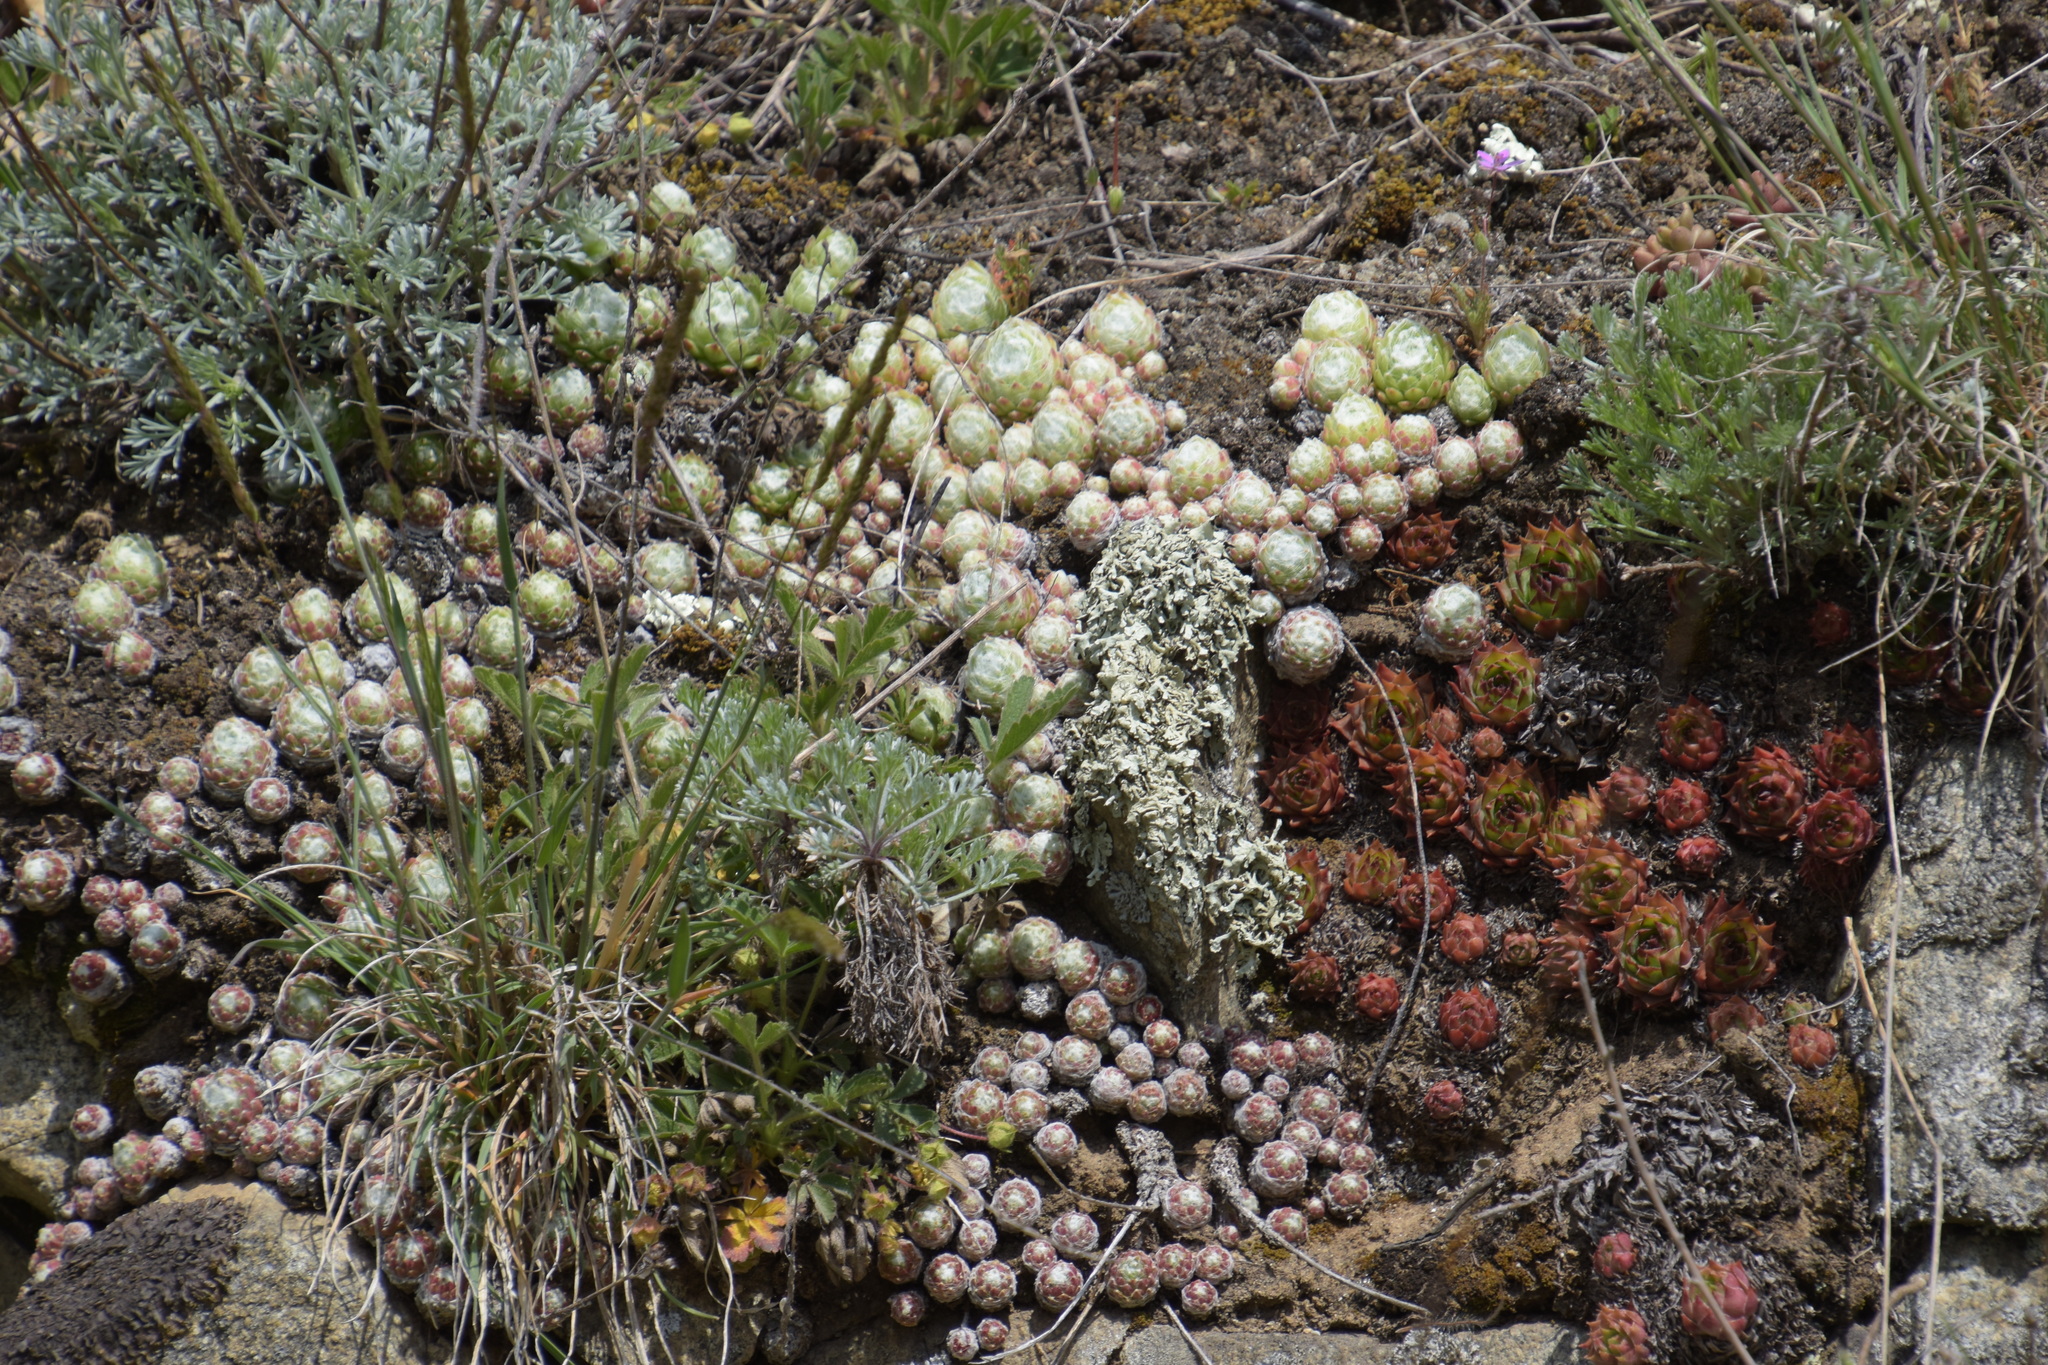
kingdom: Plantae
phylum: Tracheophyta
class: Magnoliopsida
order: Saxifragales
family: Crassulaceae
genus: Sempervivum
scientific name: Sempervivum arachnoideum
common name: Cobweb house-leek
